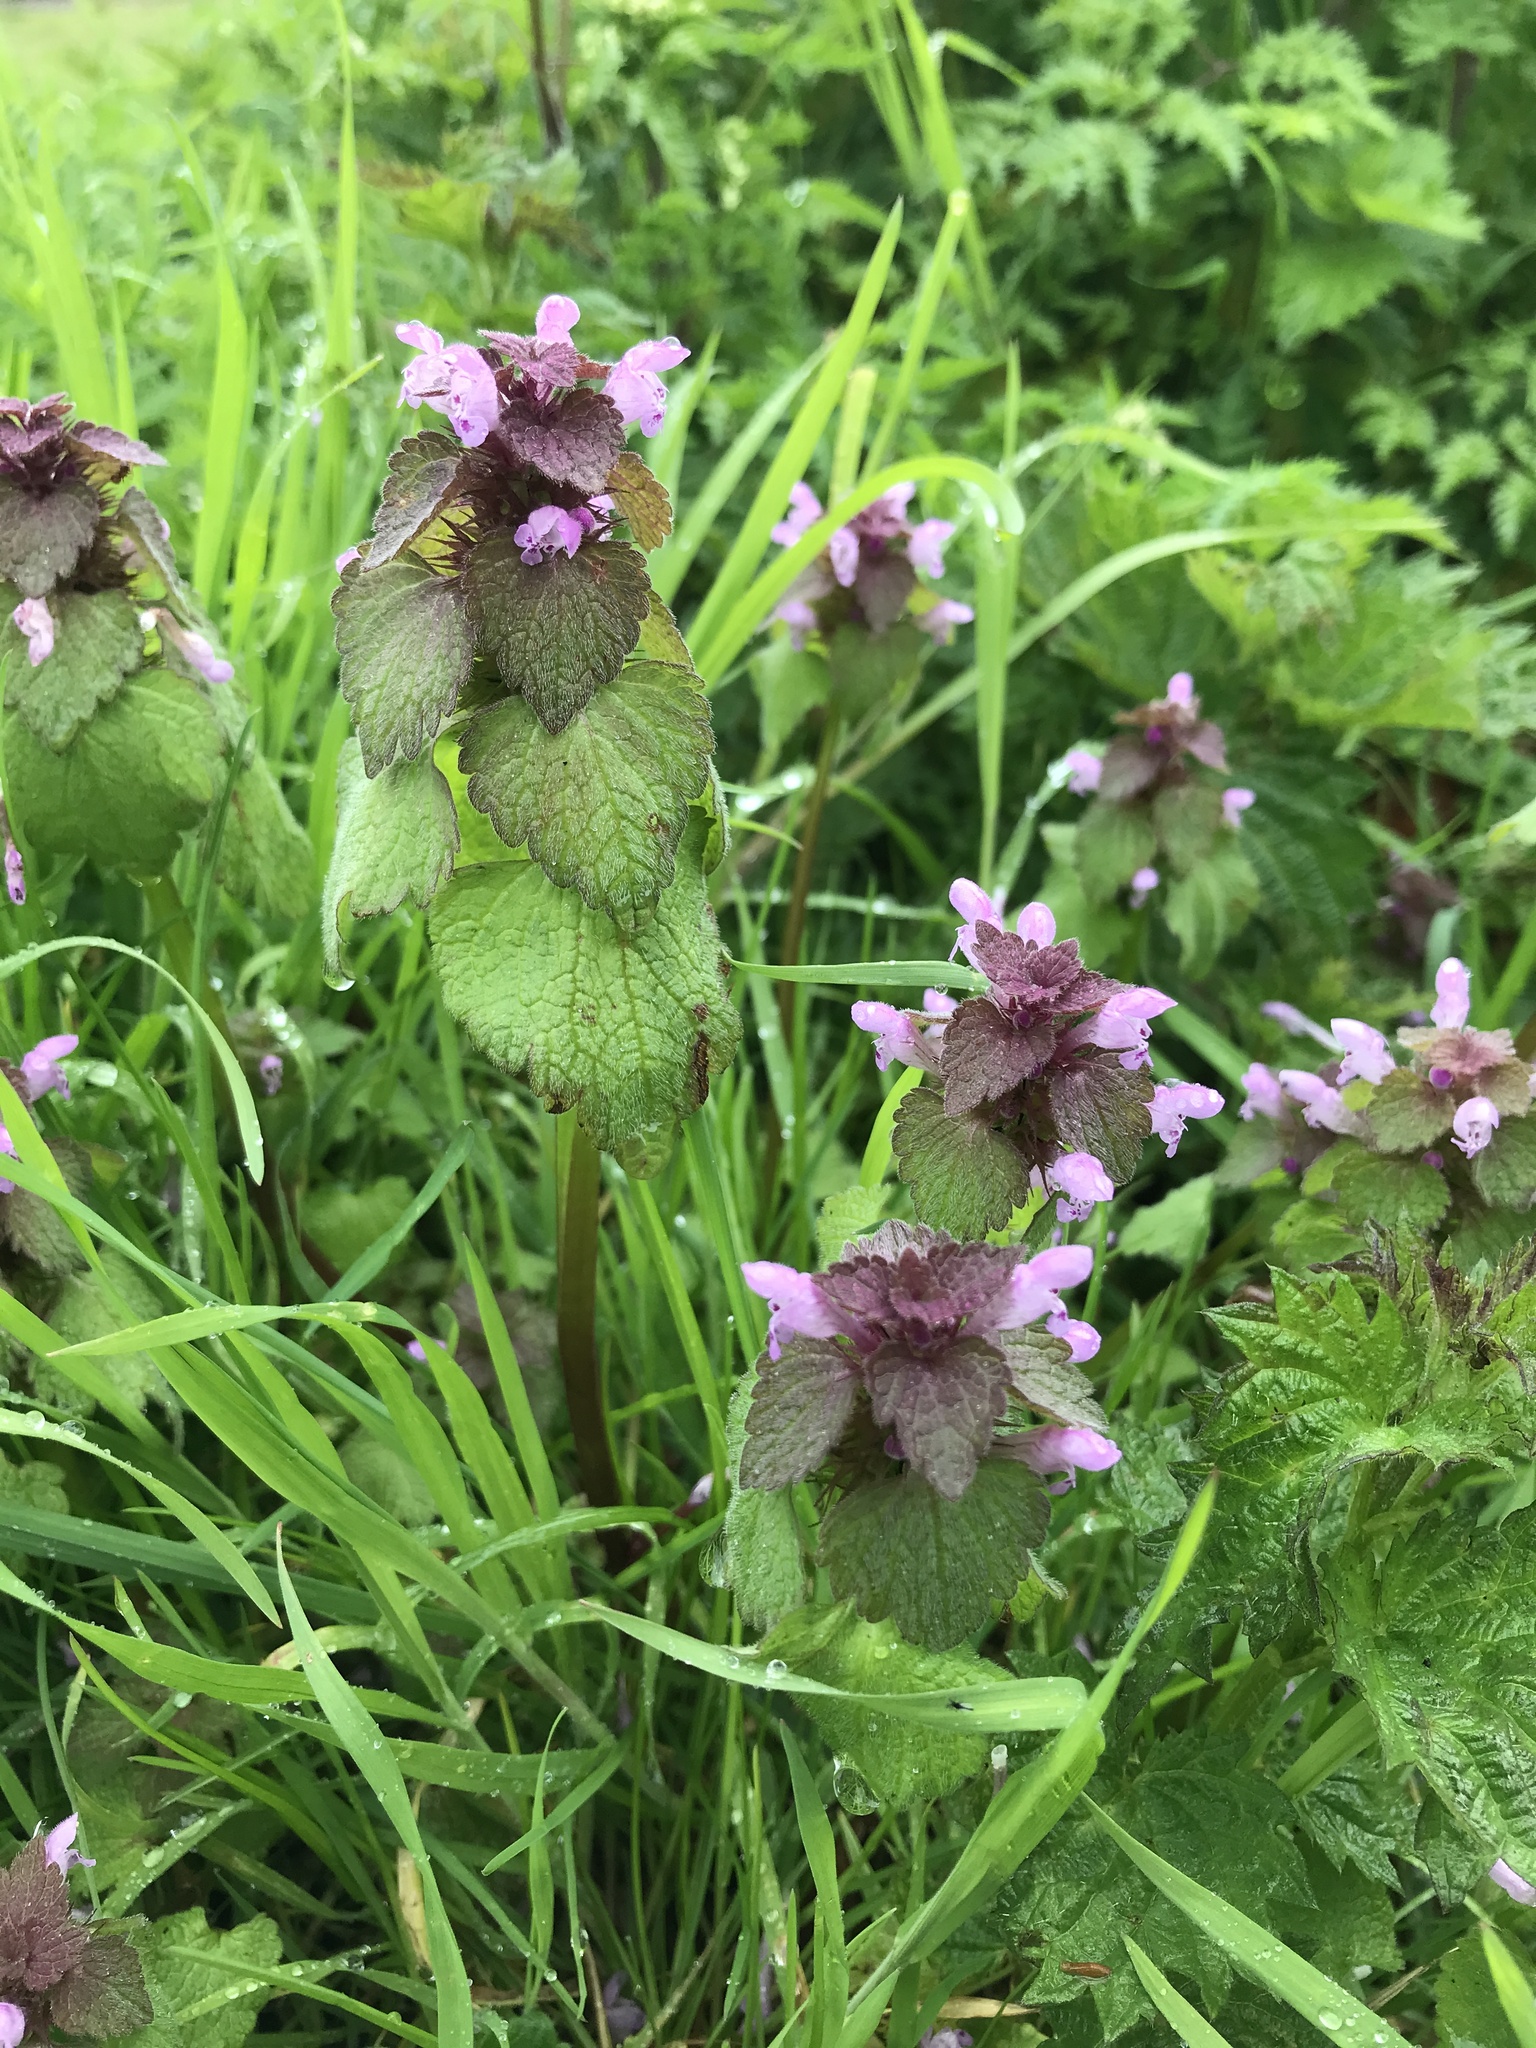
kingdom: Plantae
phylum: Tracheophyta
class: Magnoliopsida
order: Lamiales
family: Lamiaceae
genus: Lamium
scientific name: Lamium purpureum
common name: Red dead-nettle
